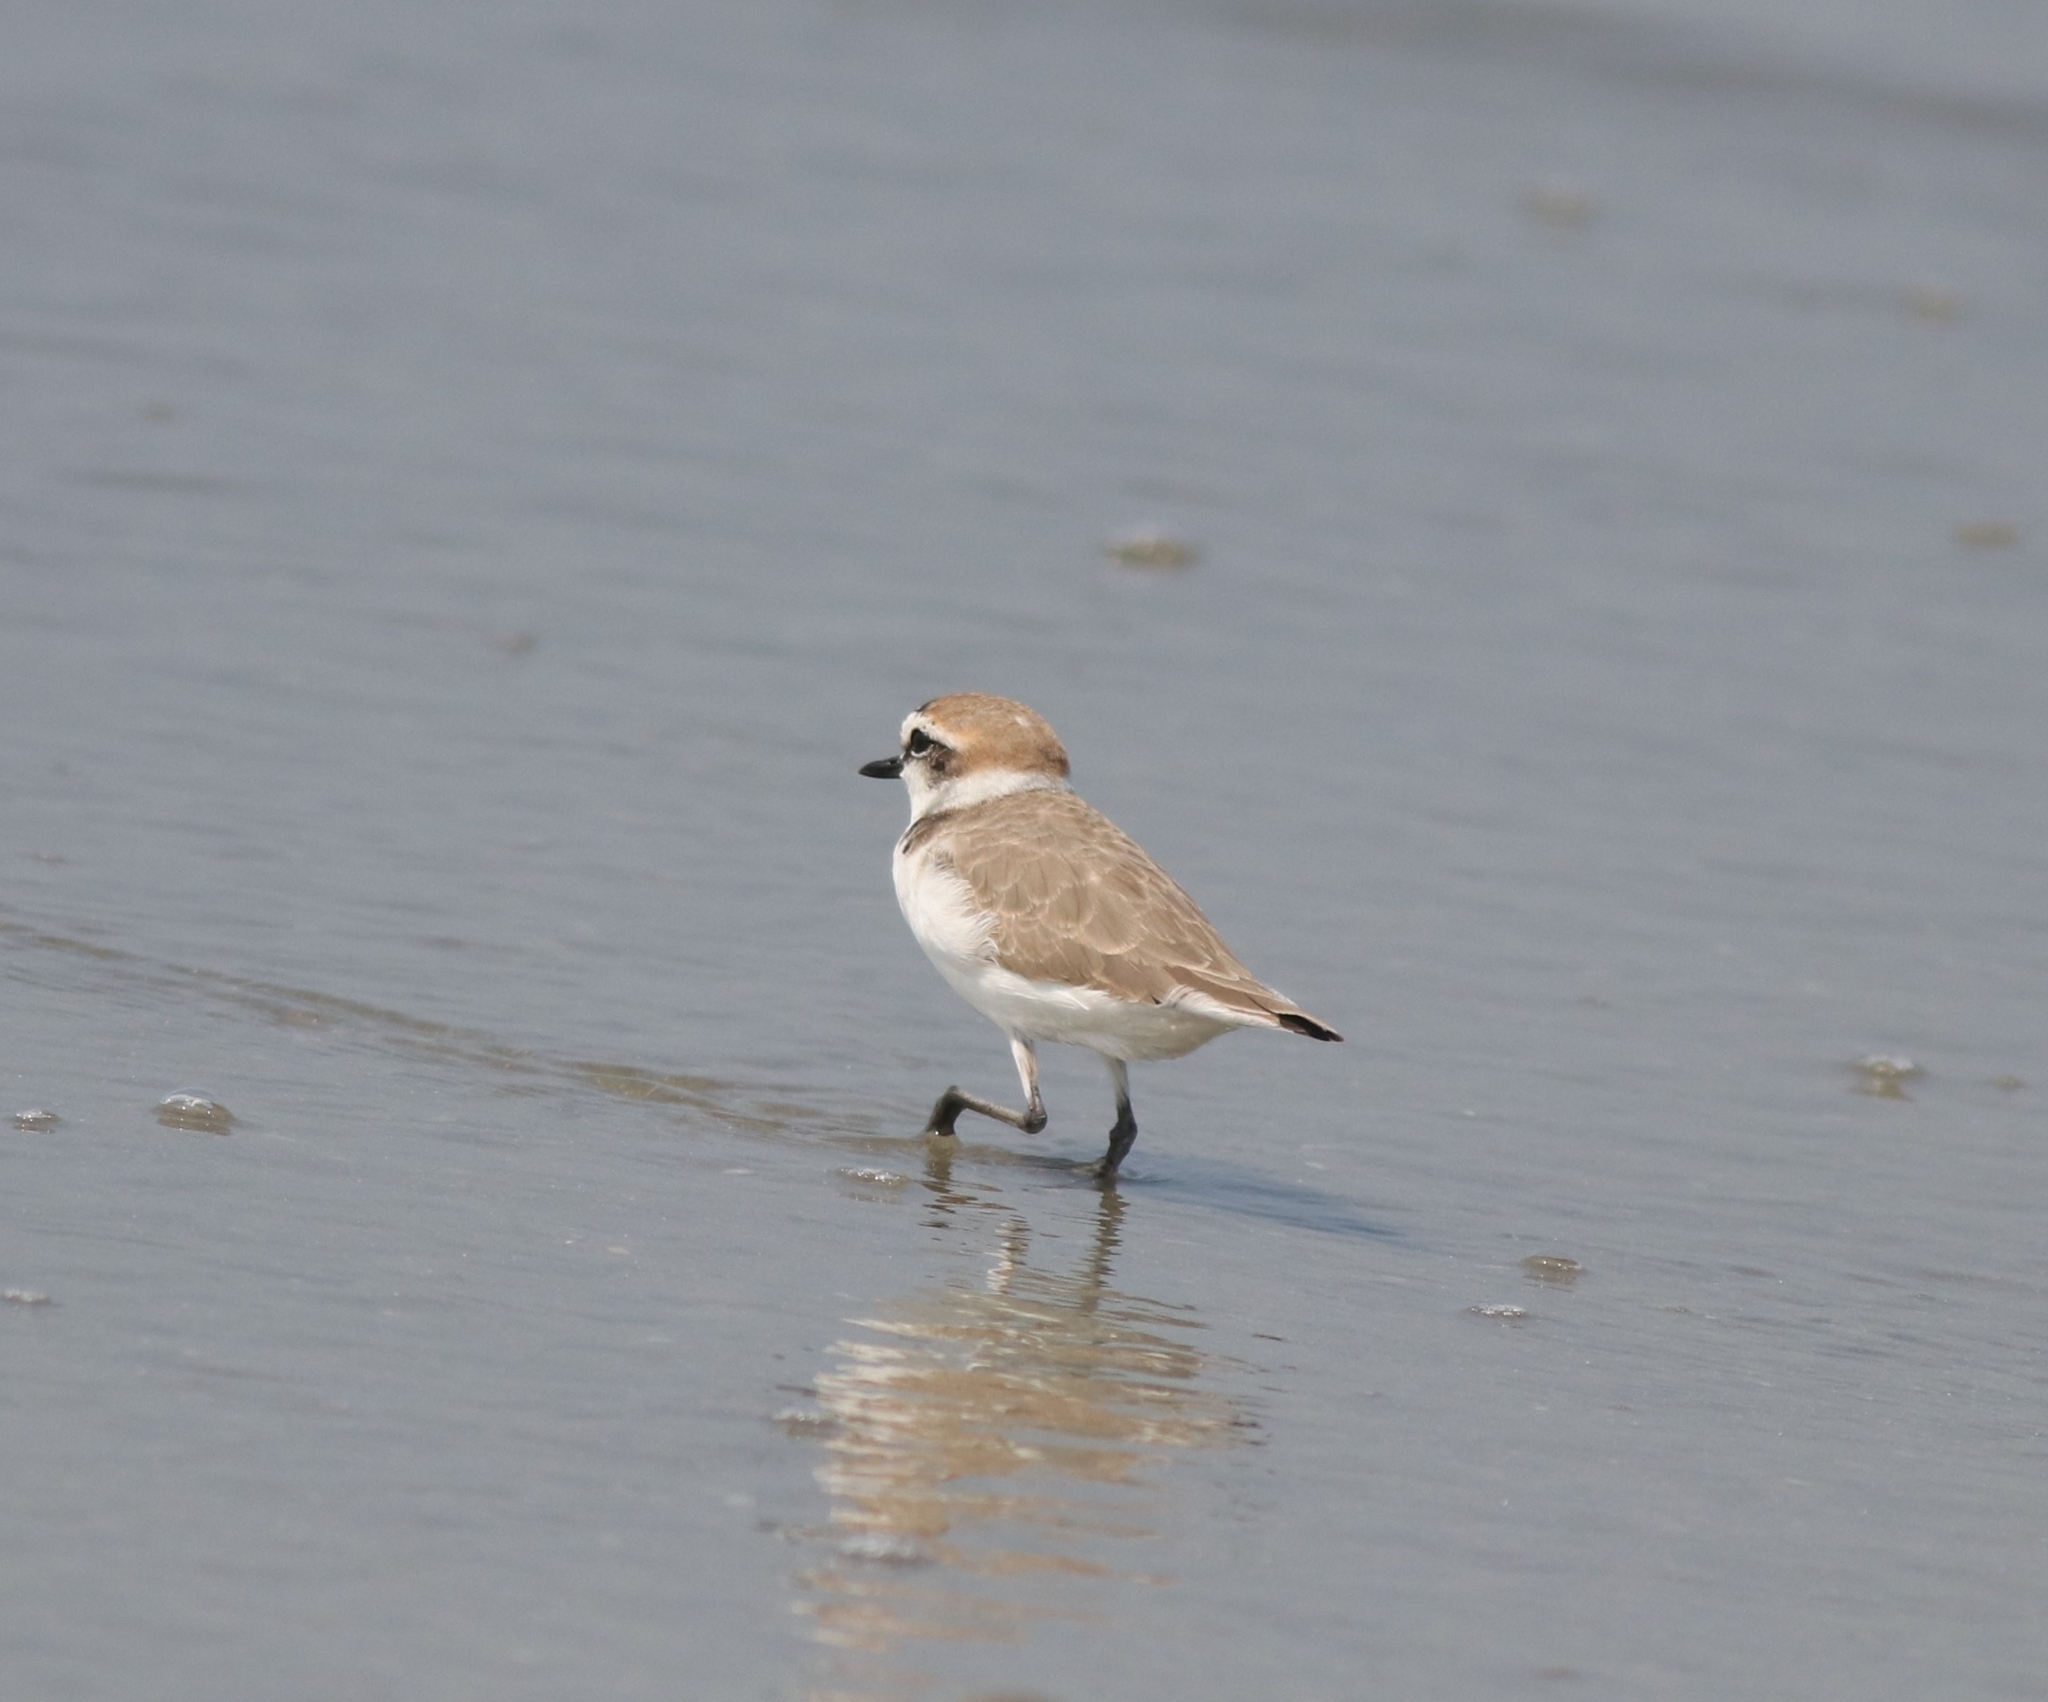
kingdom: Animalia
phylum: Chordata
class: Aves
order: Charadriiformes
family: Charadriidae
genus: Charadrius
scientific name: Charadrius alexandrinus
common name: Kentish plover
